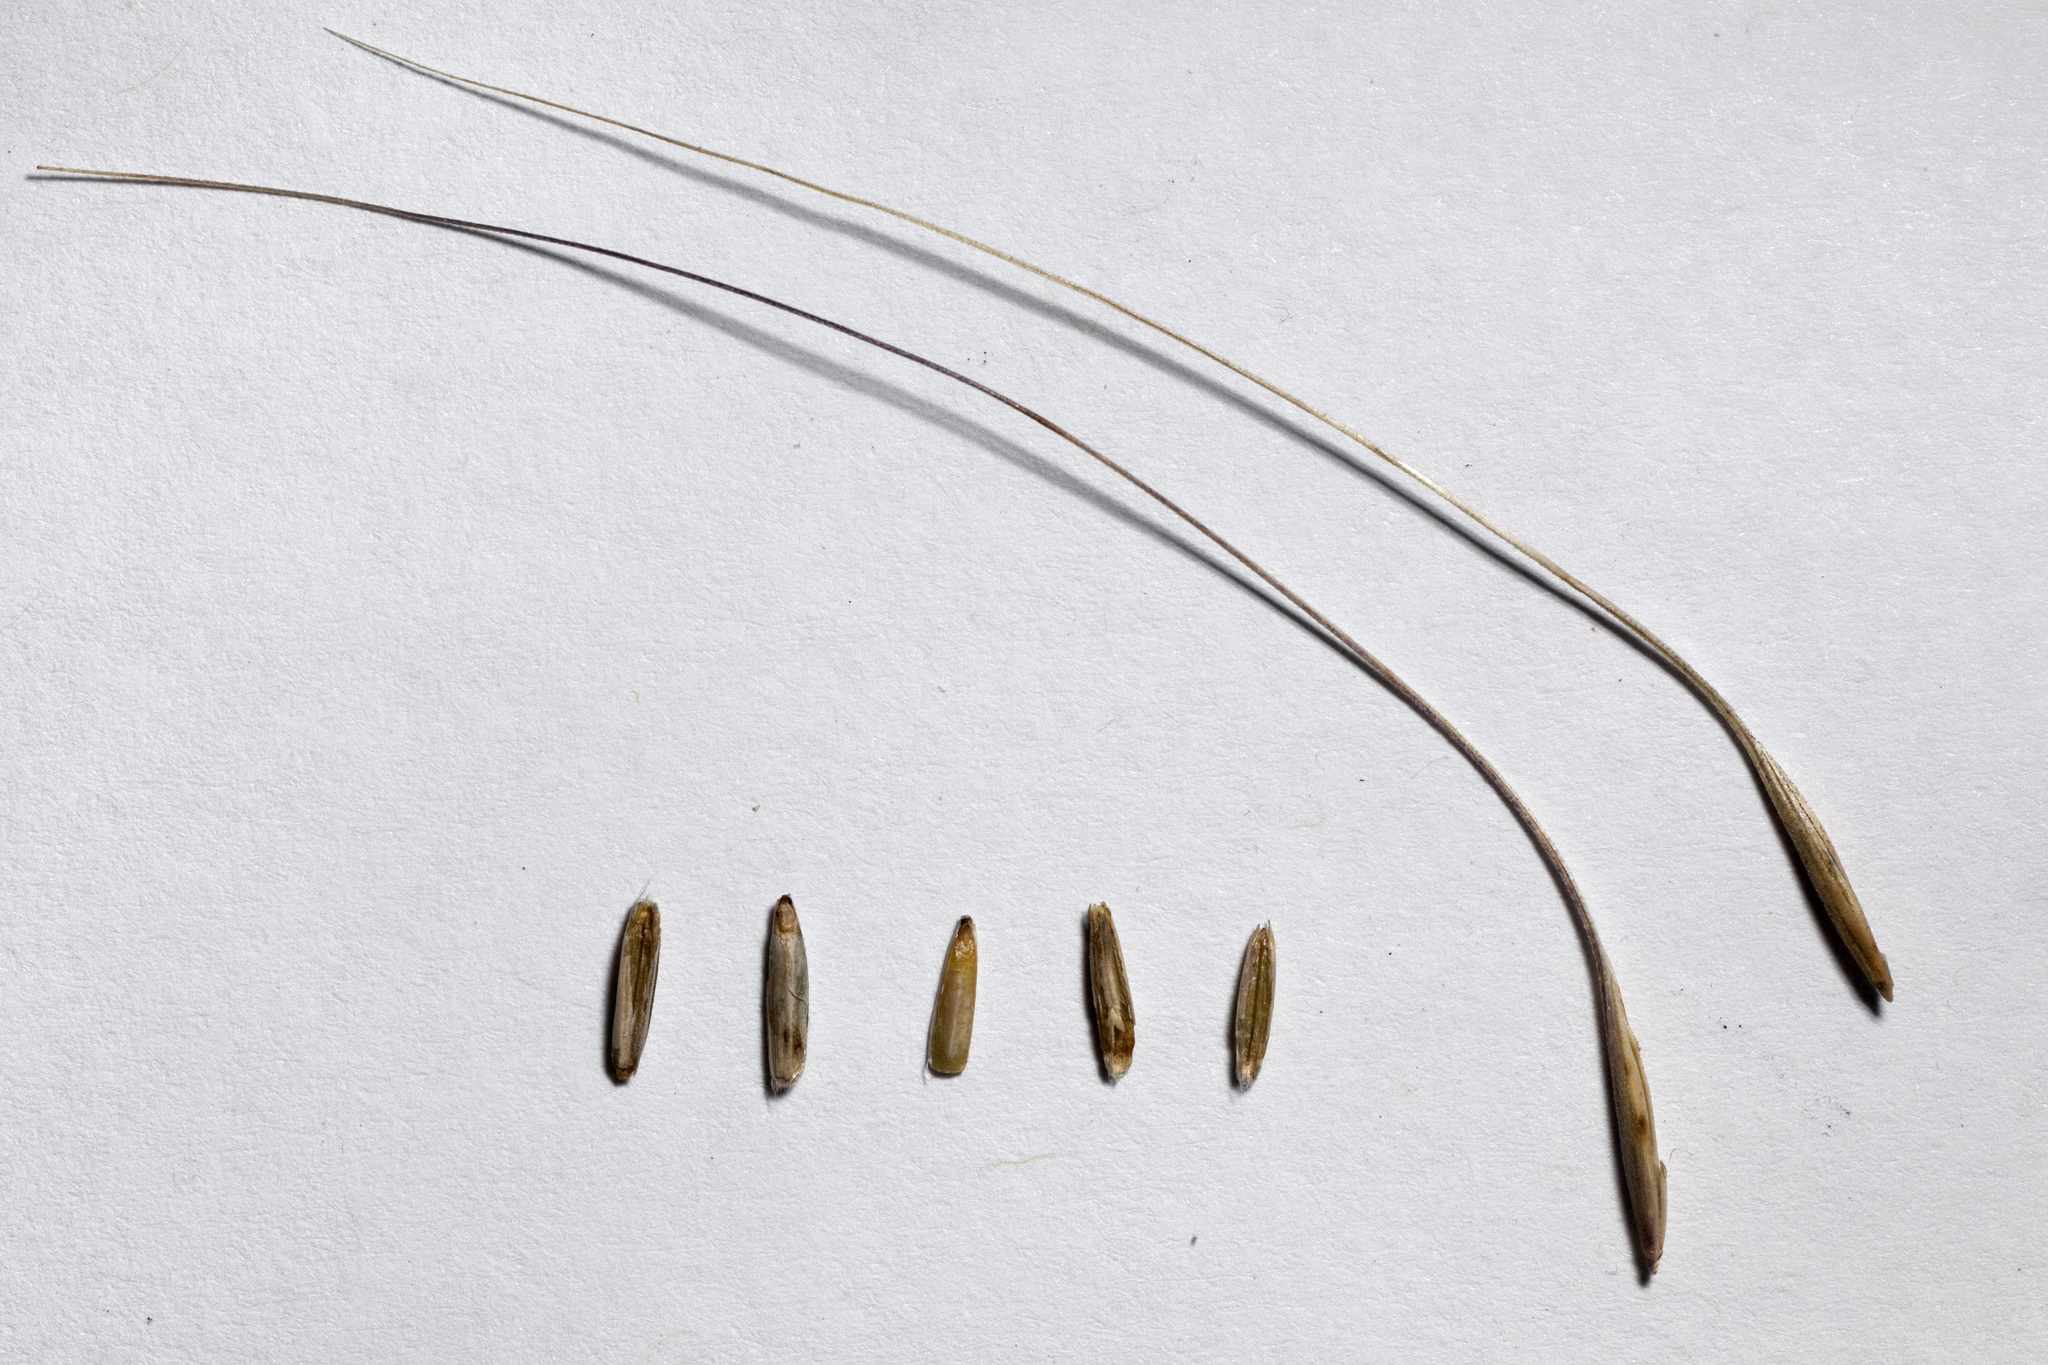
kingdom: Plantae
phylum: Tracheophyta
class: Liliopsida
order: Poales
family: Poaceae
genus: Elymus
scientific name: Elymus longifolius
